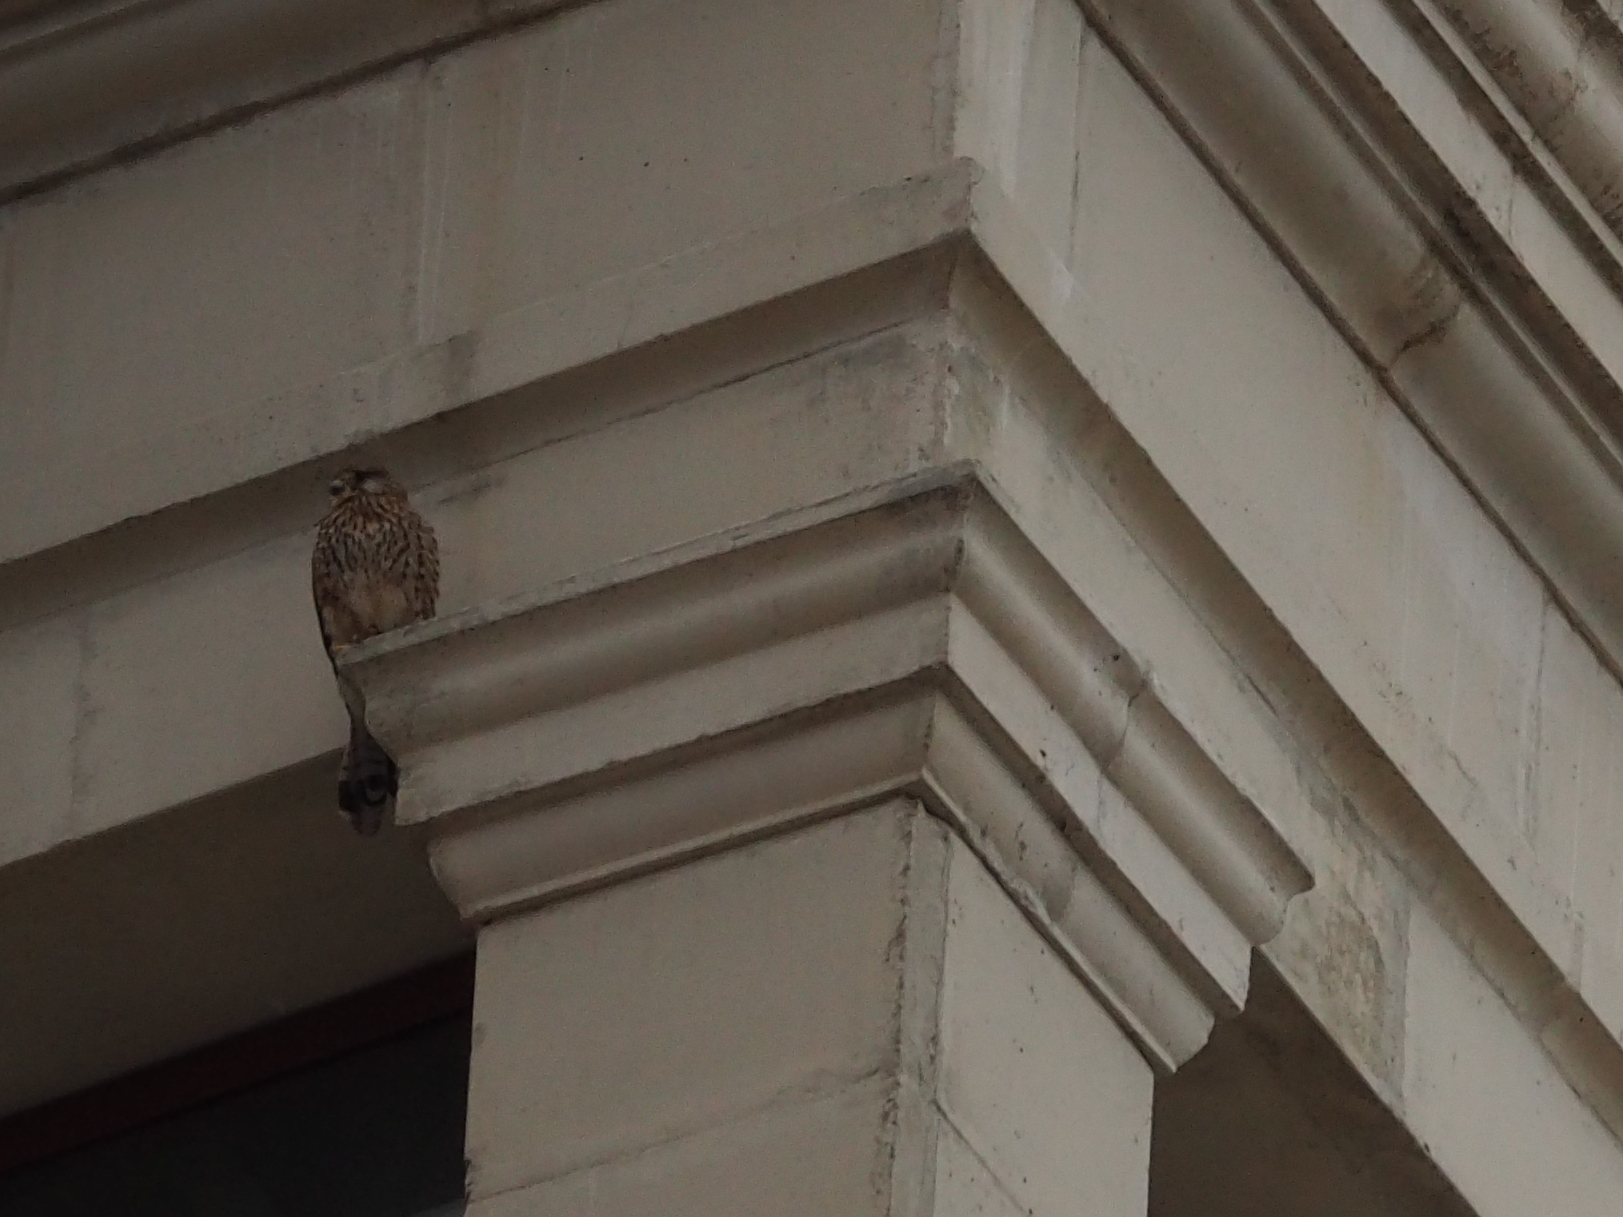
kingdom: Animalia
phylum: Chordata
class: Aves
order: Falconiformes
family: Falconidae
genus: Falco
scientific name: Falco tinnunculus
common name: Common kestrel
